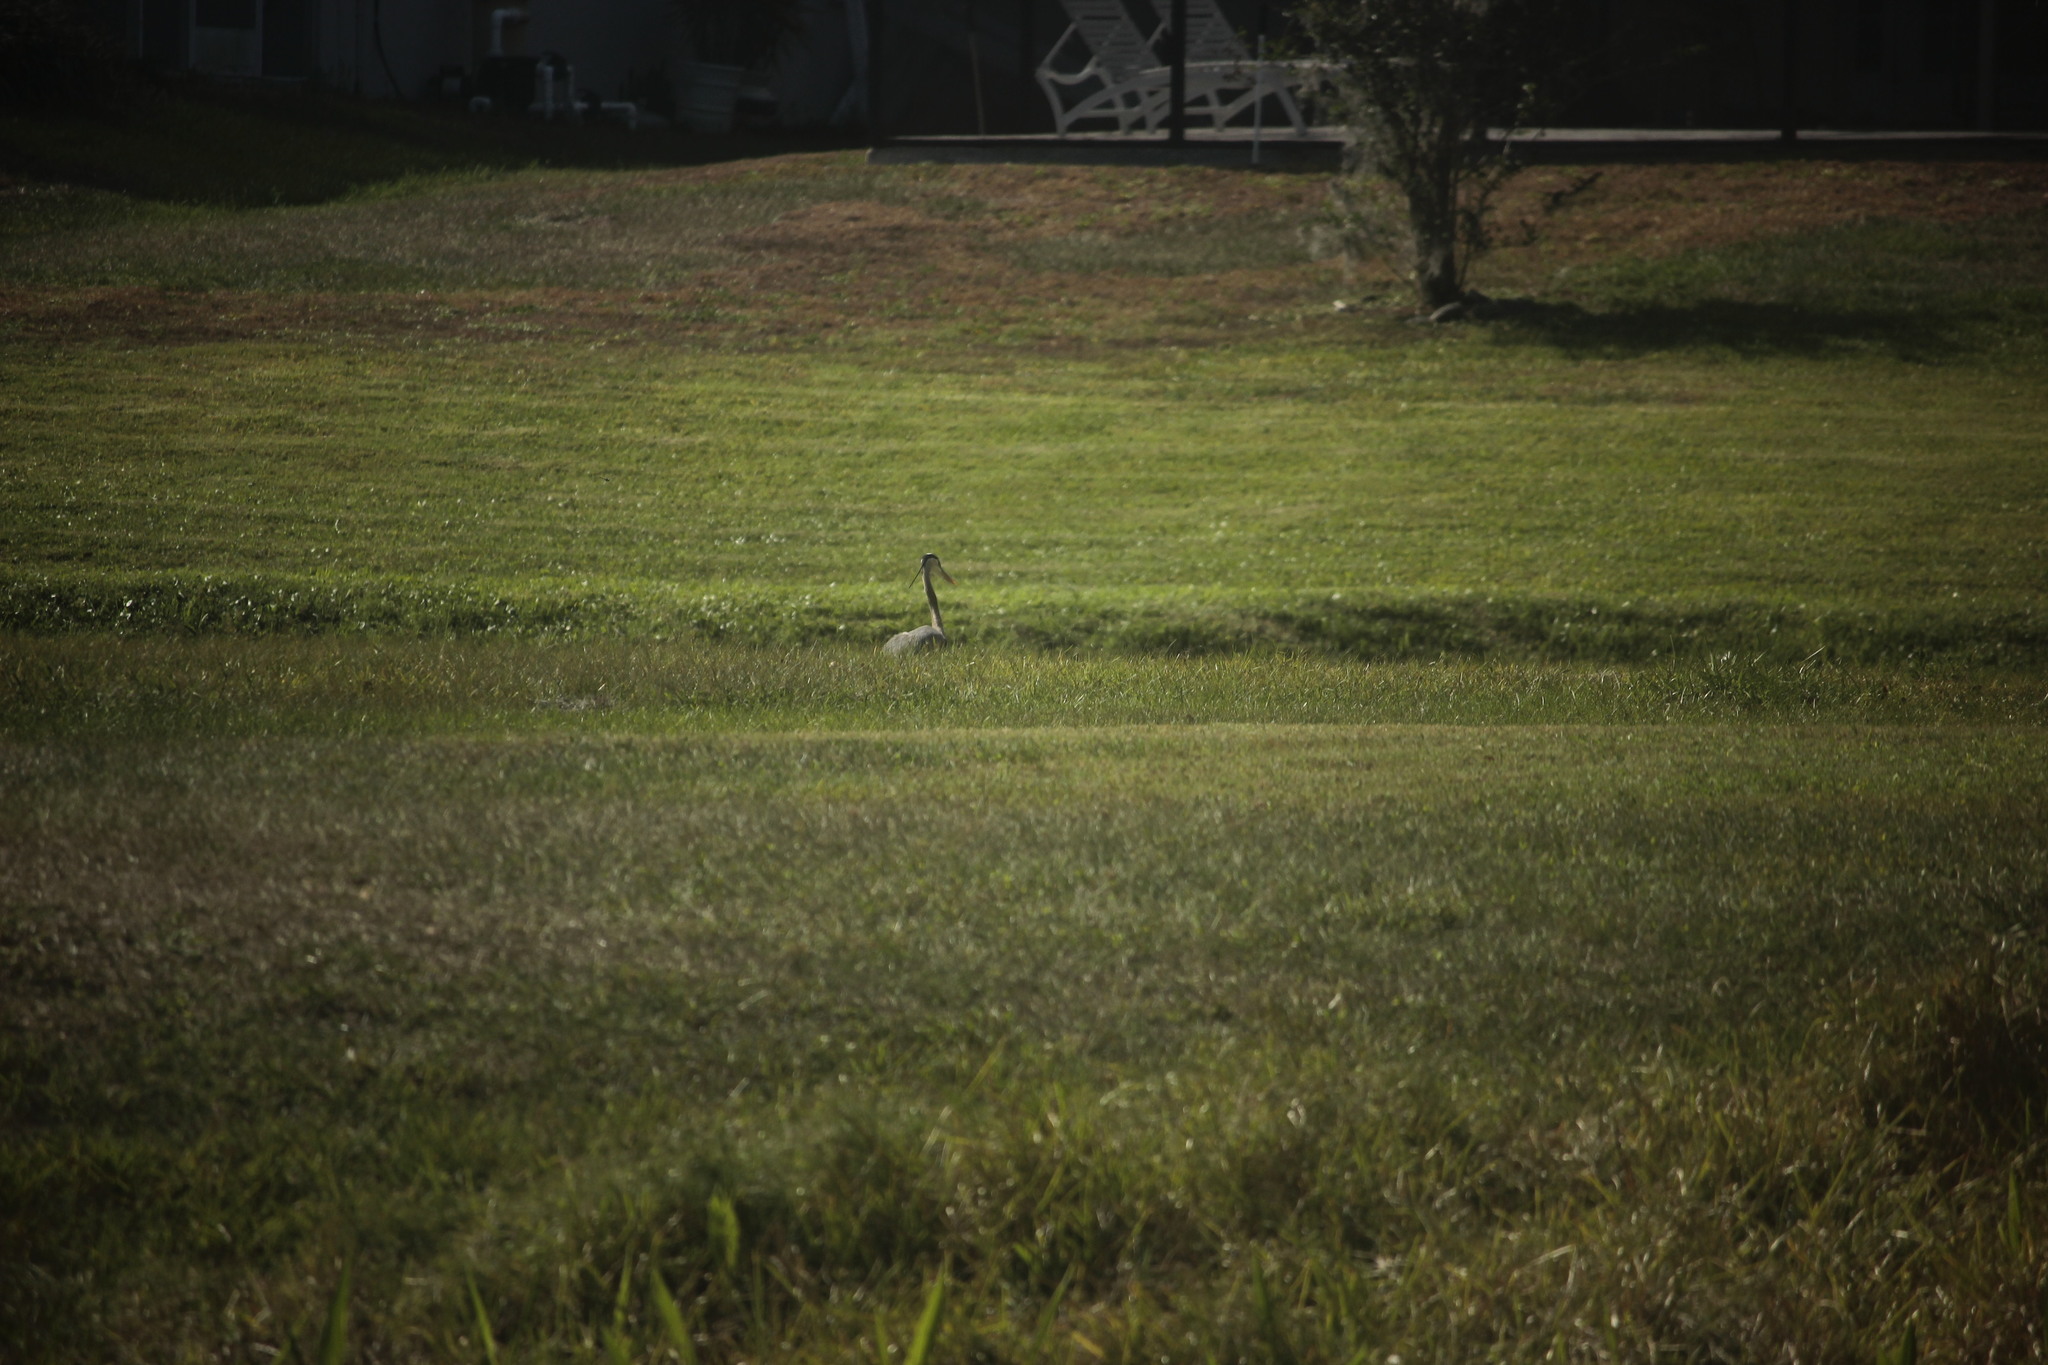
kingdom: Animalia
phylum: Chordata
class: Aves
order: Pelecaniformes
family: Ardeidae
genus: Ardea
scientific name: Ardea herodias
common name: Great blue heron
